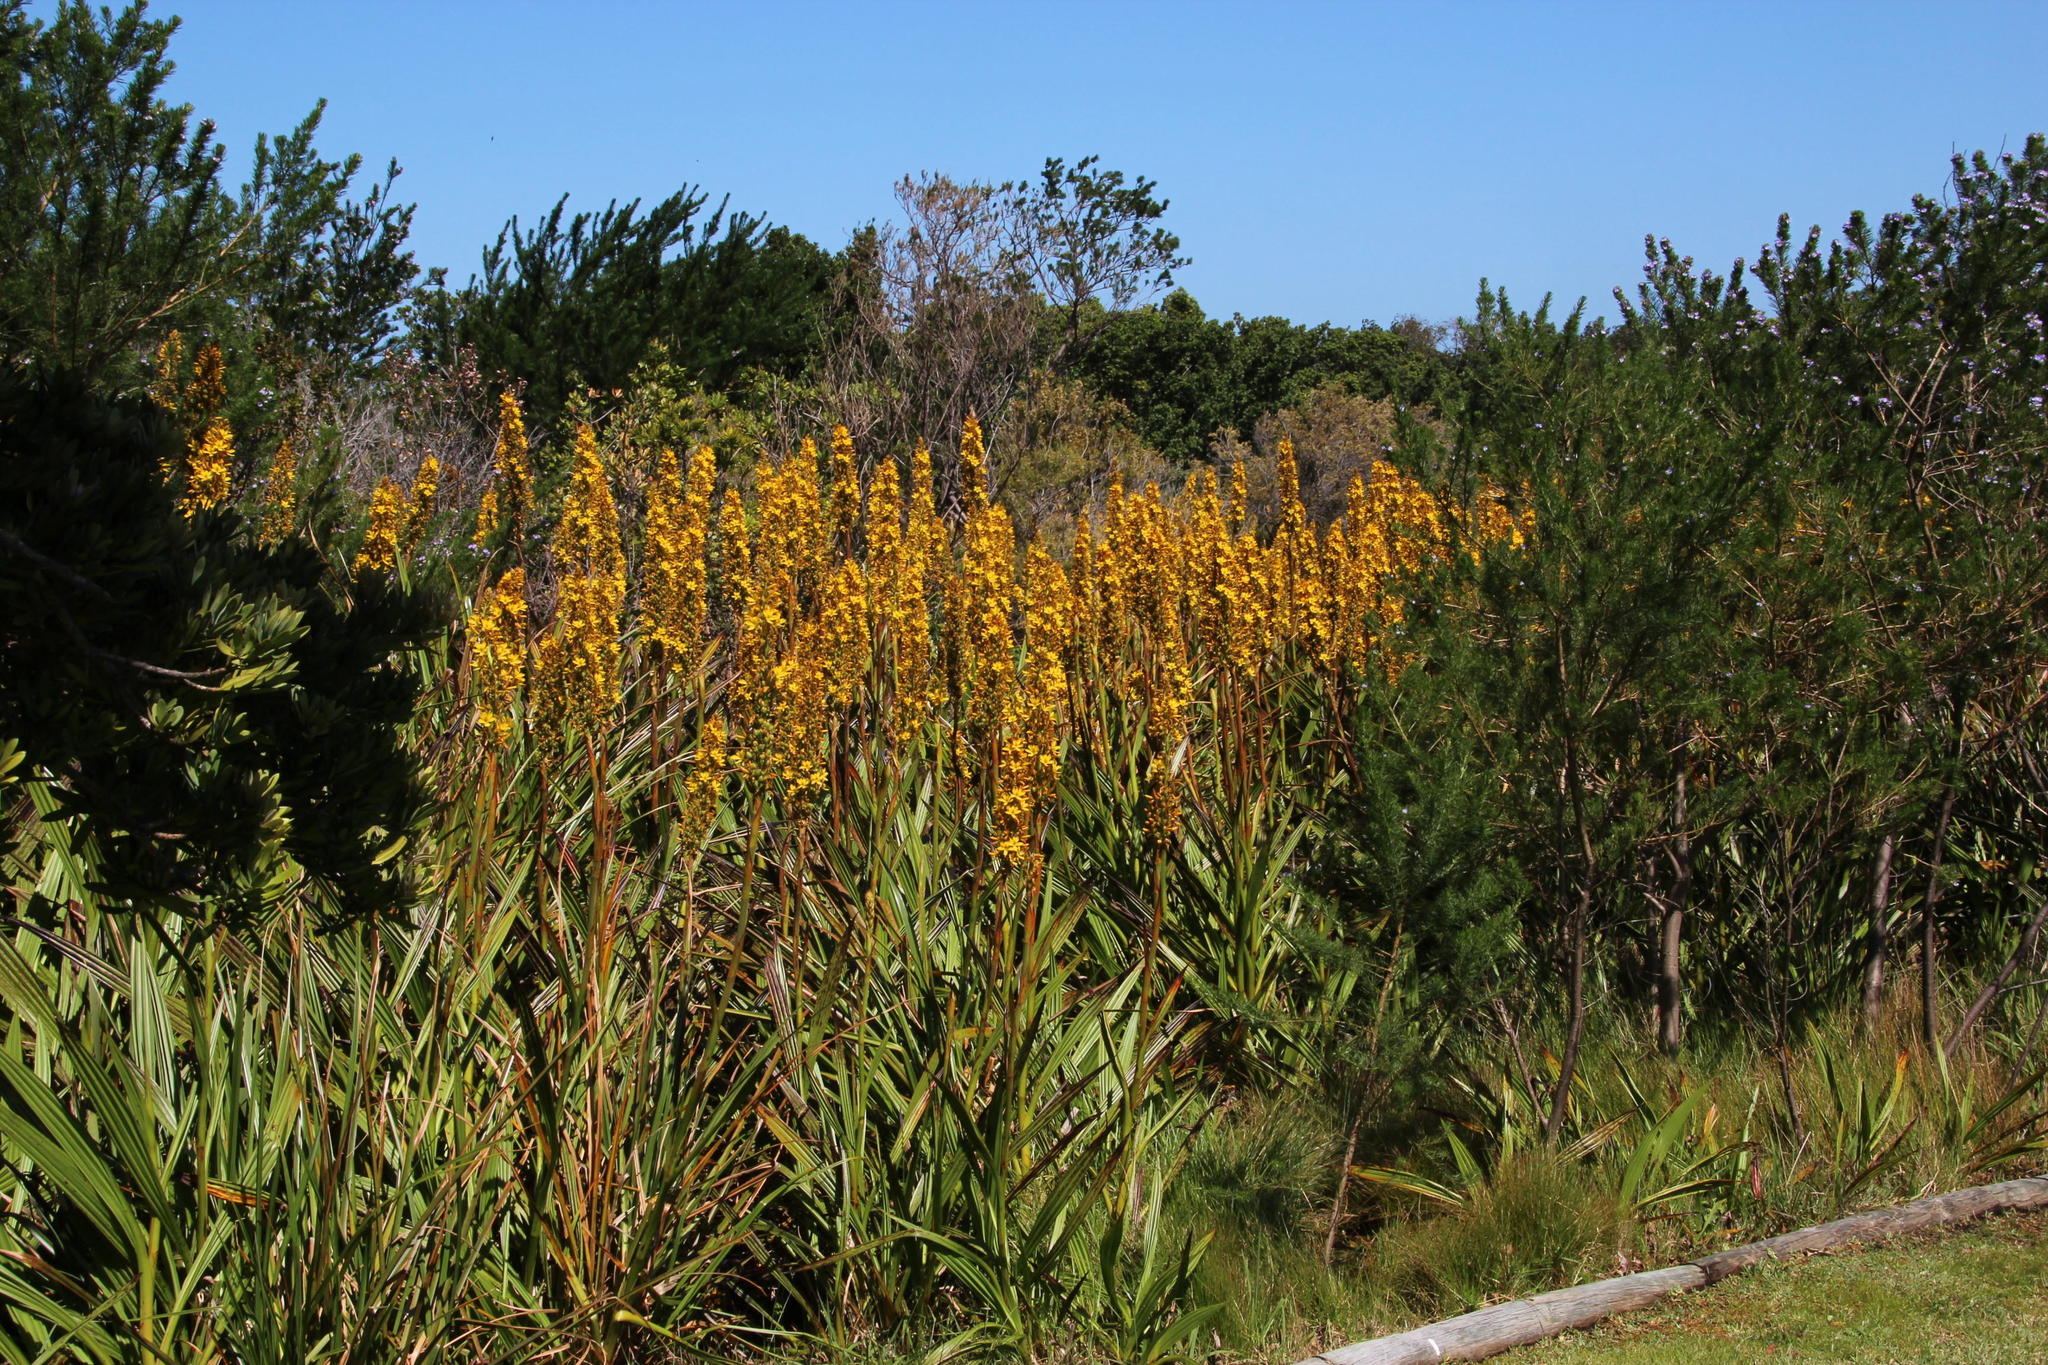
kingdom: Plantae
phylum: Tracheophyta
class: Liliopsida
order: Commelinales
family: Haemodoraceae
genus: Wachendorfia
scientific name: Wachendorfia thyrsiflora
